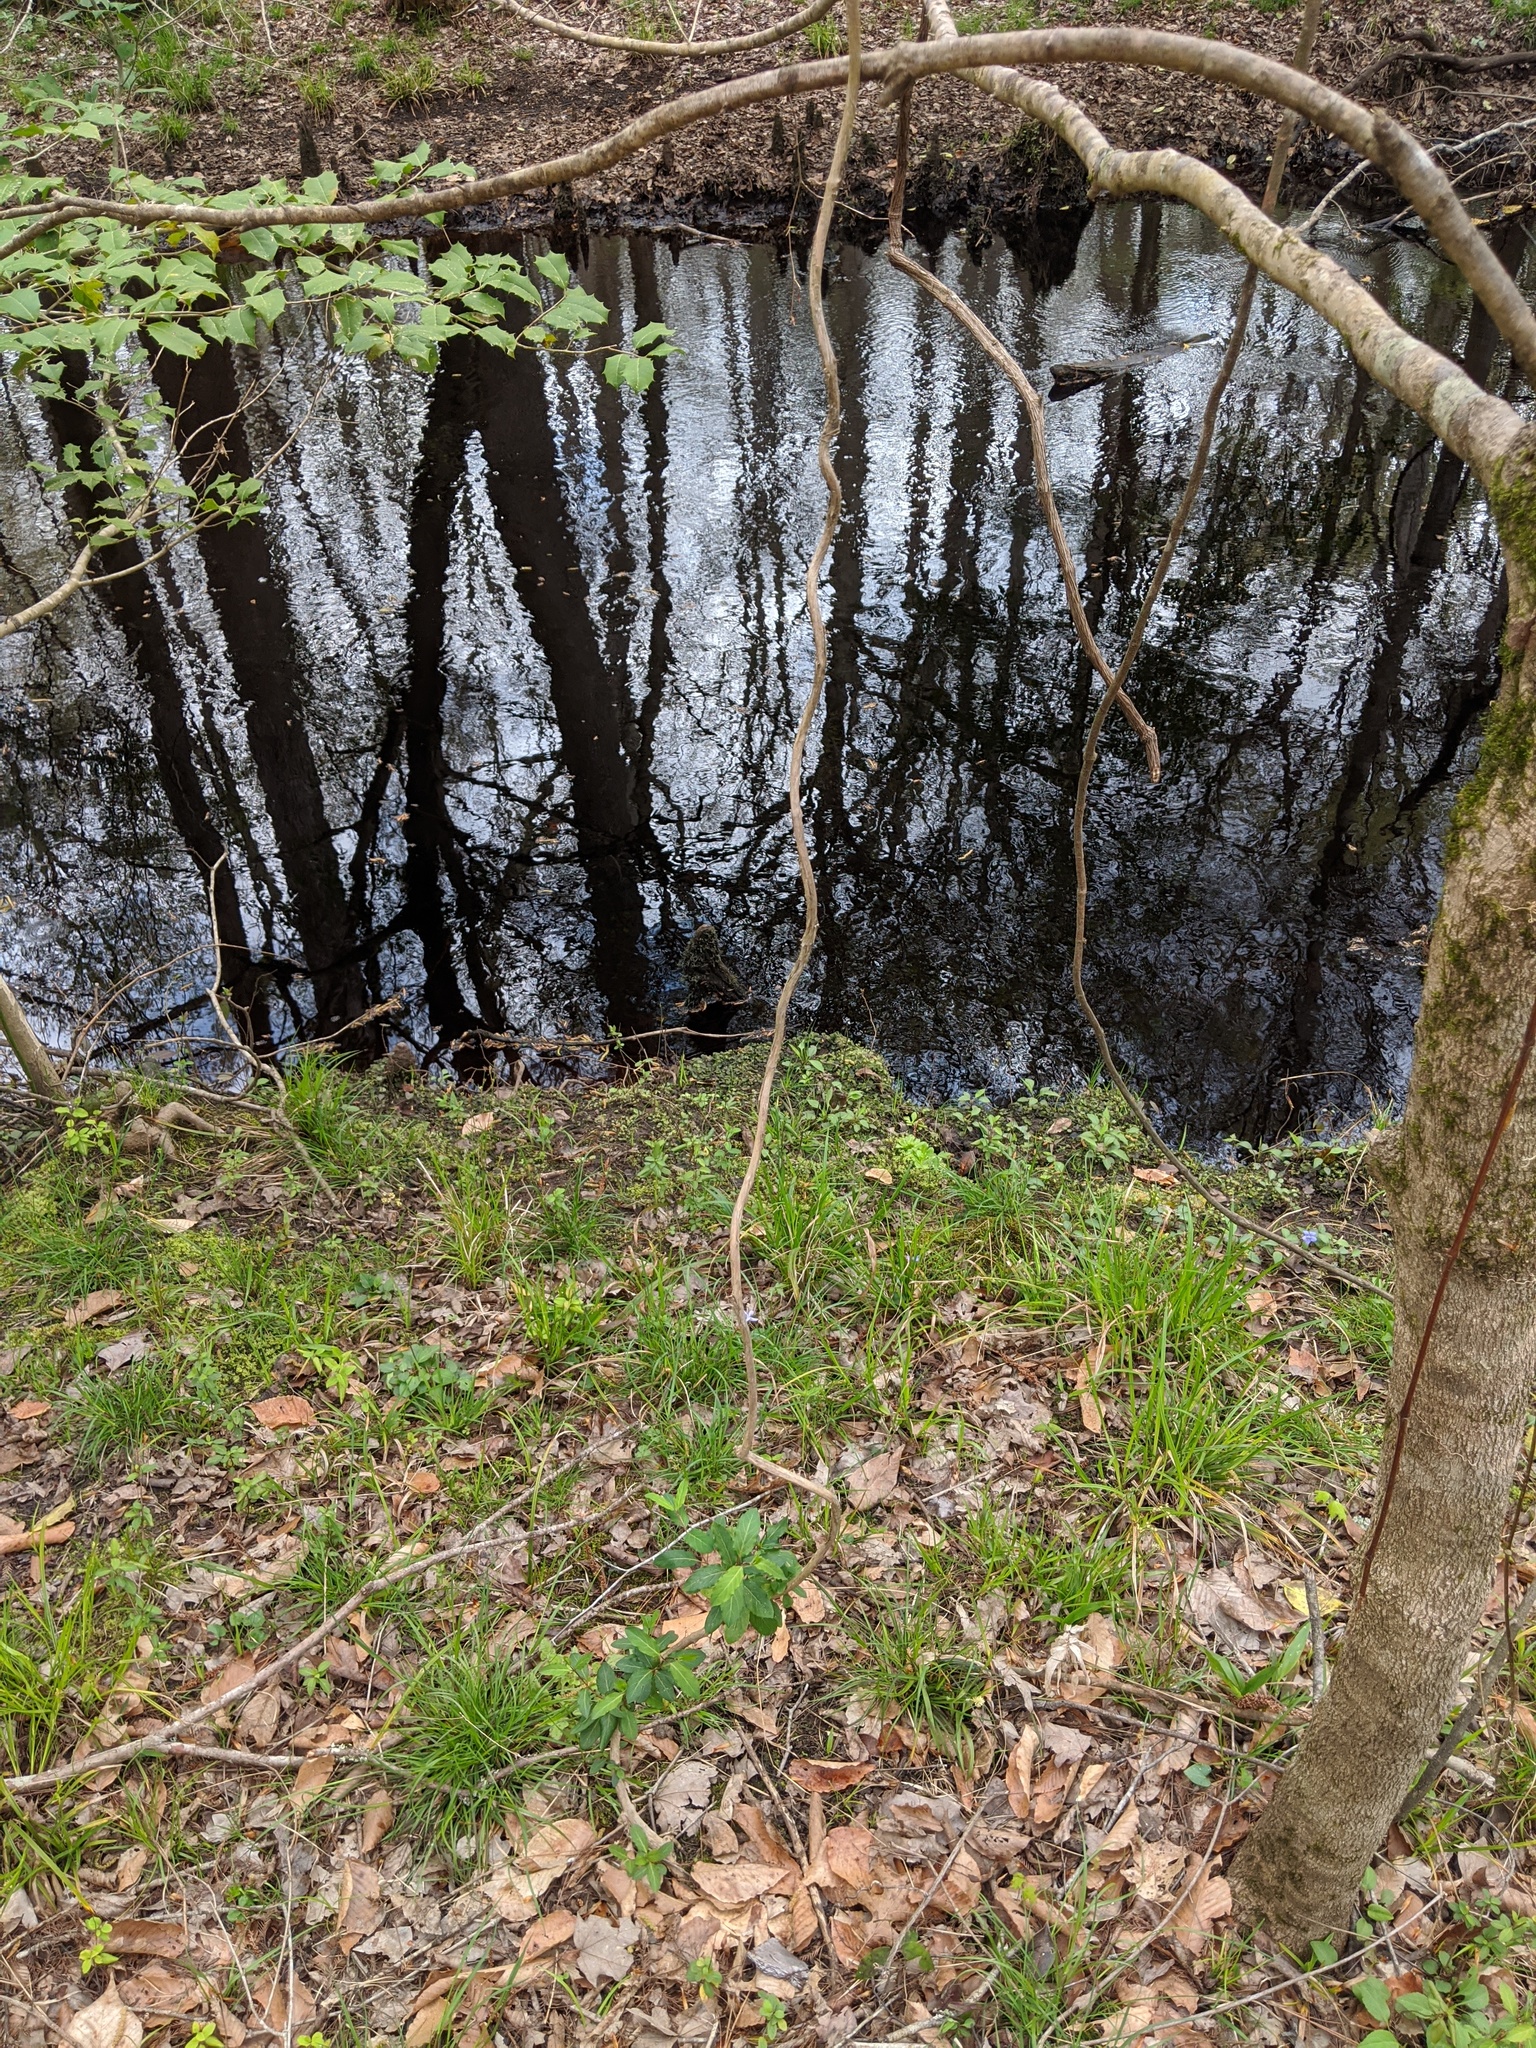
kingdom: Plantae
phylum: Tracheophyta
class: Magnoliopsida
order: Dipsacales
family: Caprifoliaceae
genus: Lonicera
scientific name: Lonicera japonica
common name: Japanese honeysuckle
